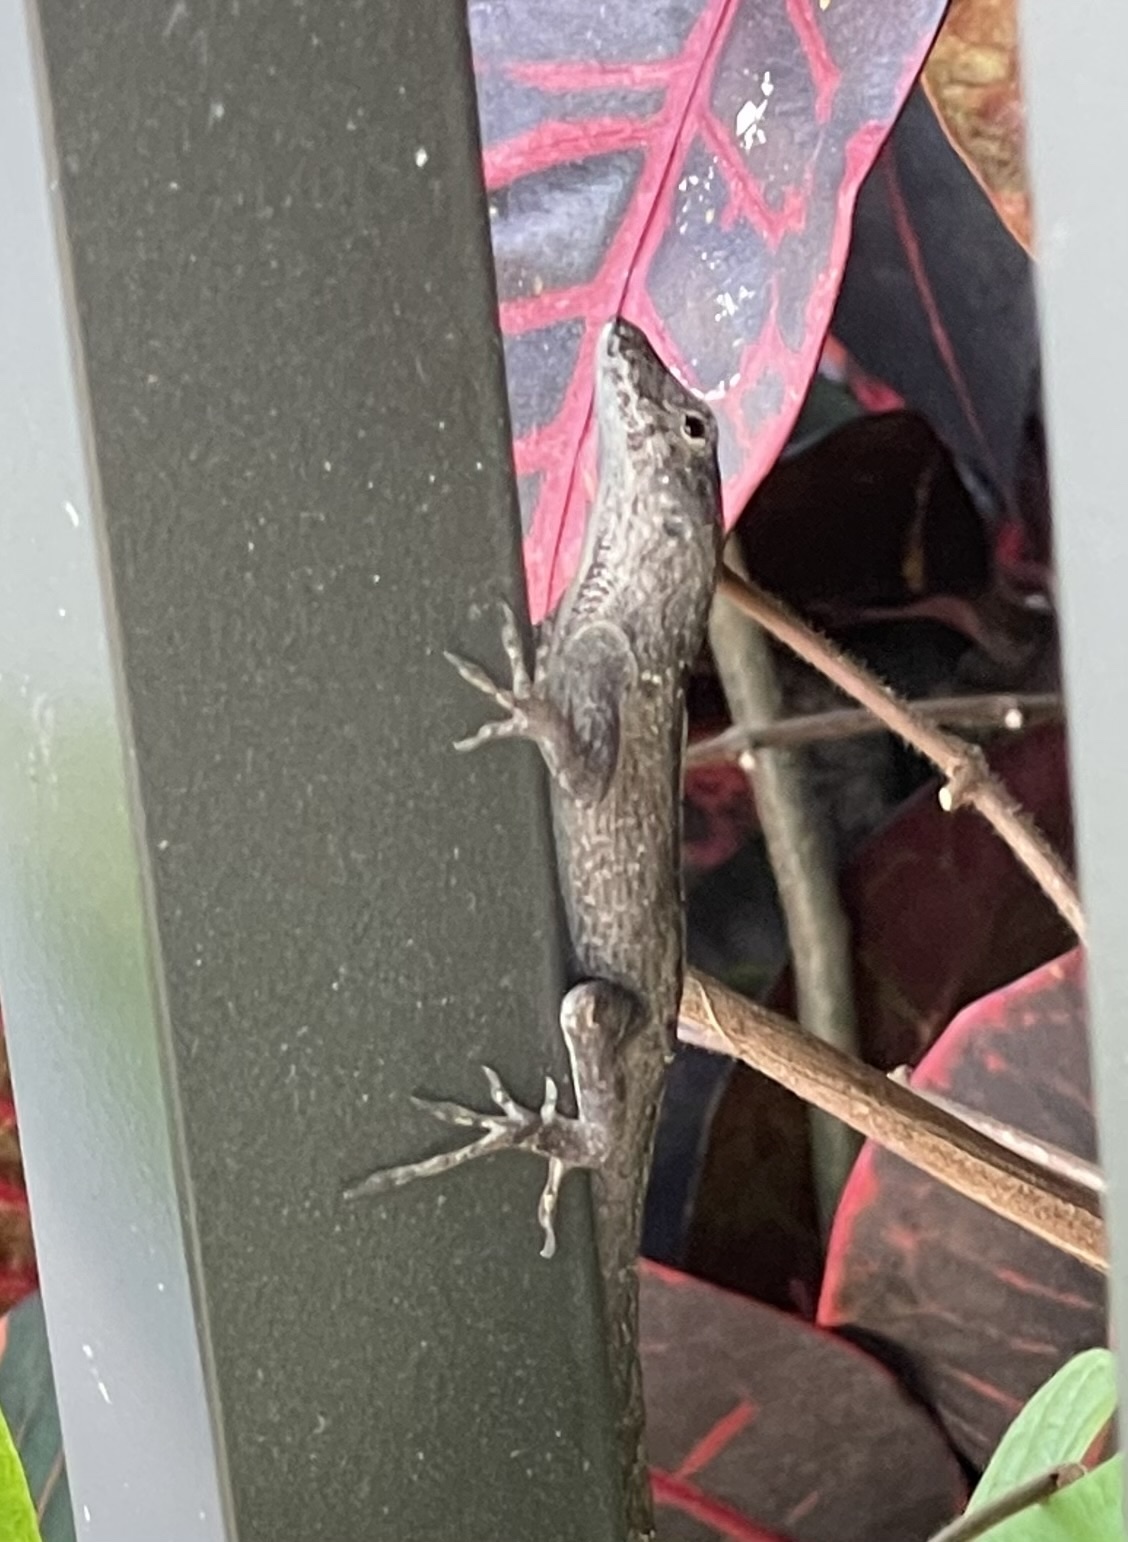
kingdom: Animalia
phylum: Chordata
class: Squamata
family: Dactyloidae
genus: Anolis
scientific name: Anolis sagrei
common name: Brown anole
